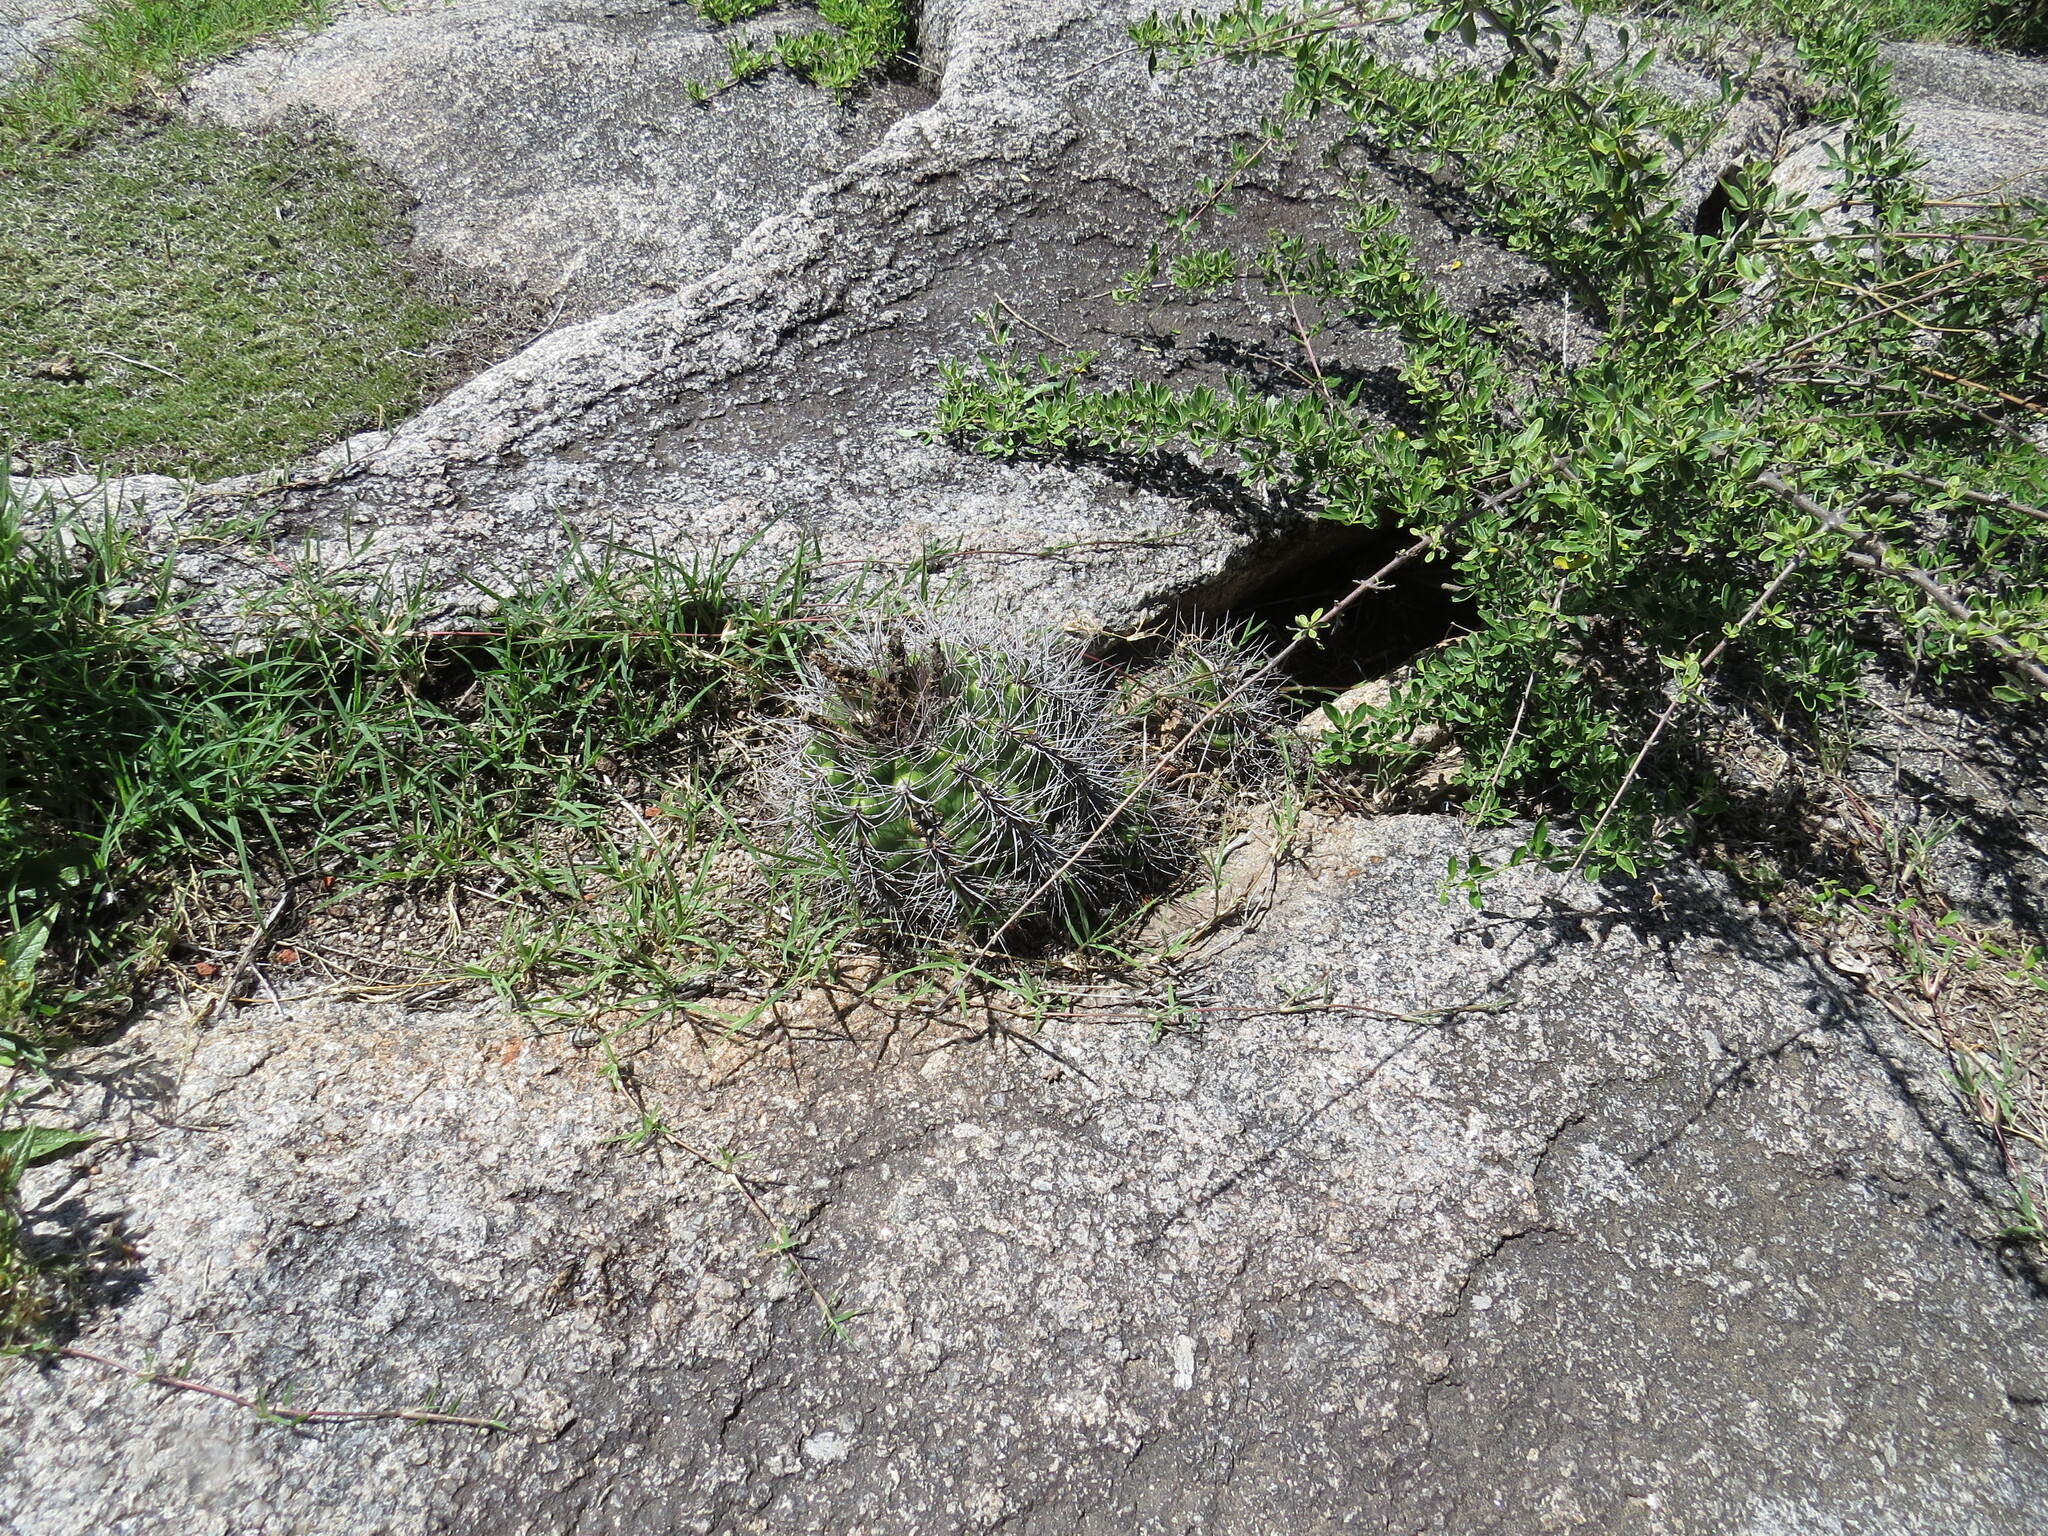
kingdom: Plantae
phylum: Tracheophyta
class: Magnoliopsida
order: Caryophyllales
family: Cactaceae
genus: Gymnocalycium
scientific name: Gymnocalycium mostii
